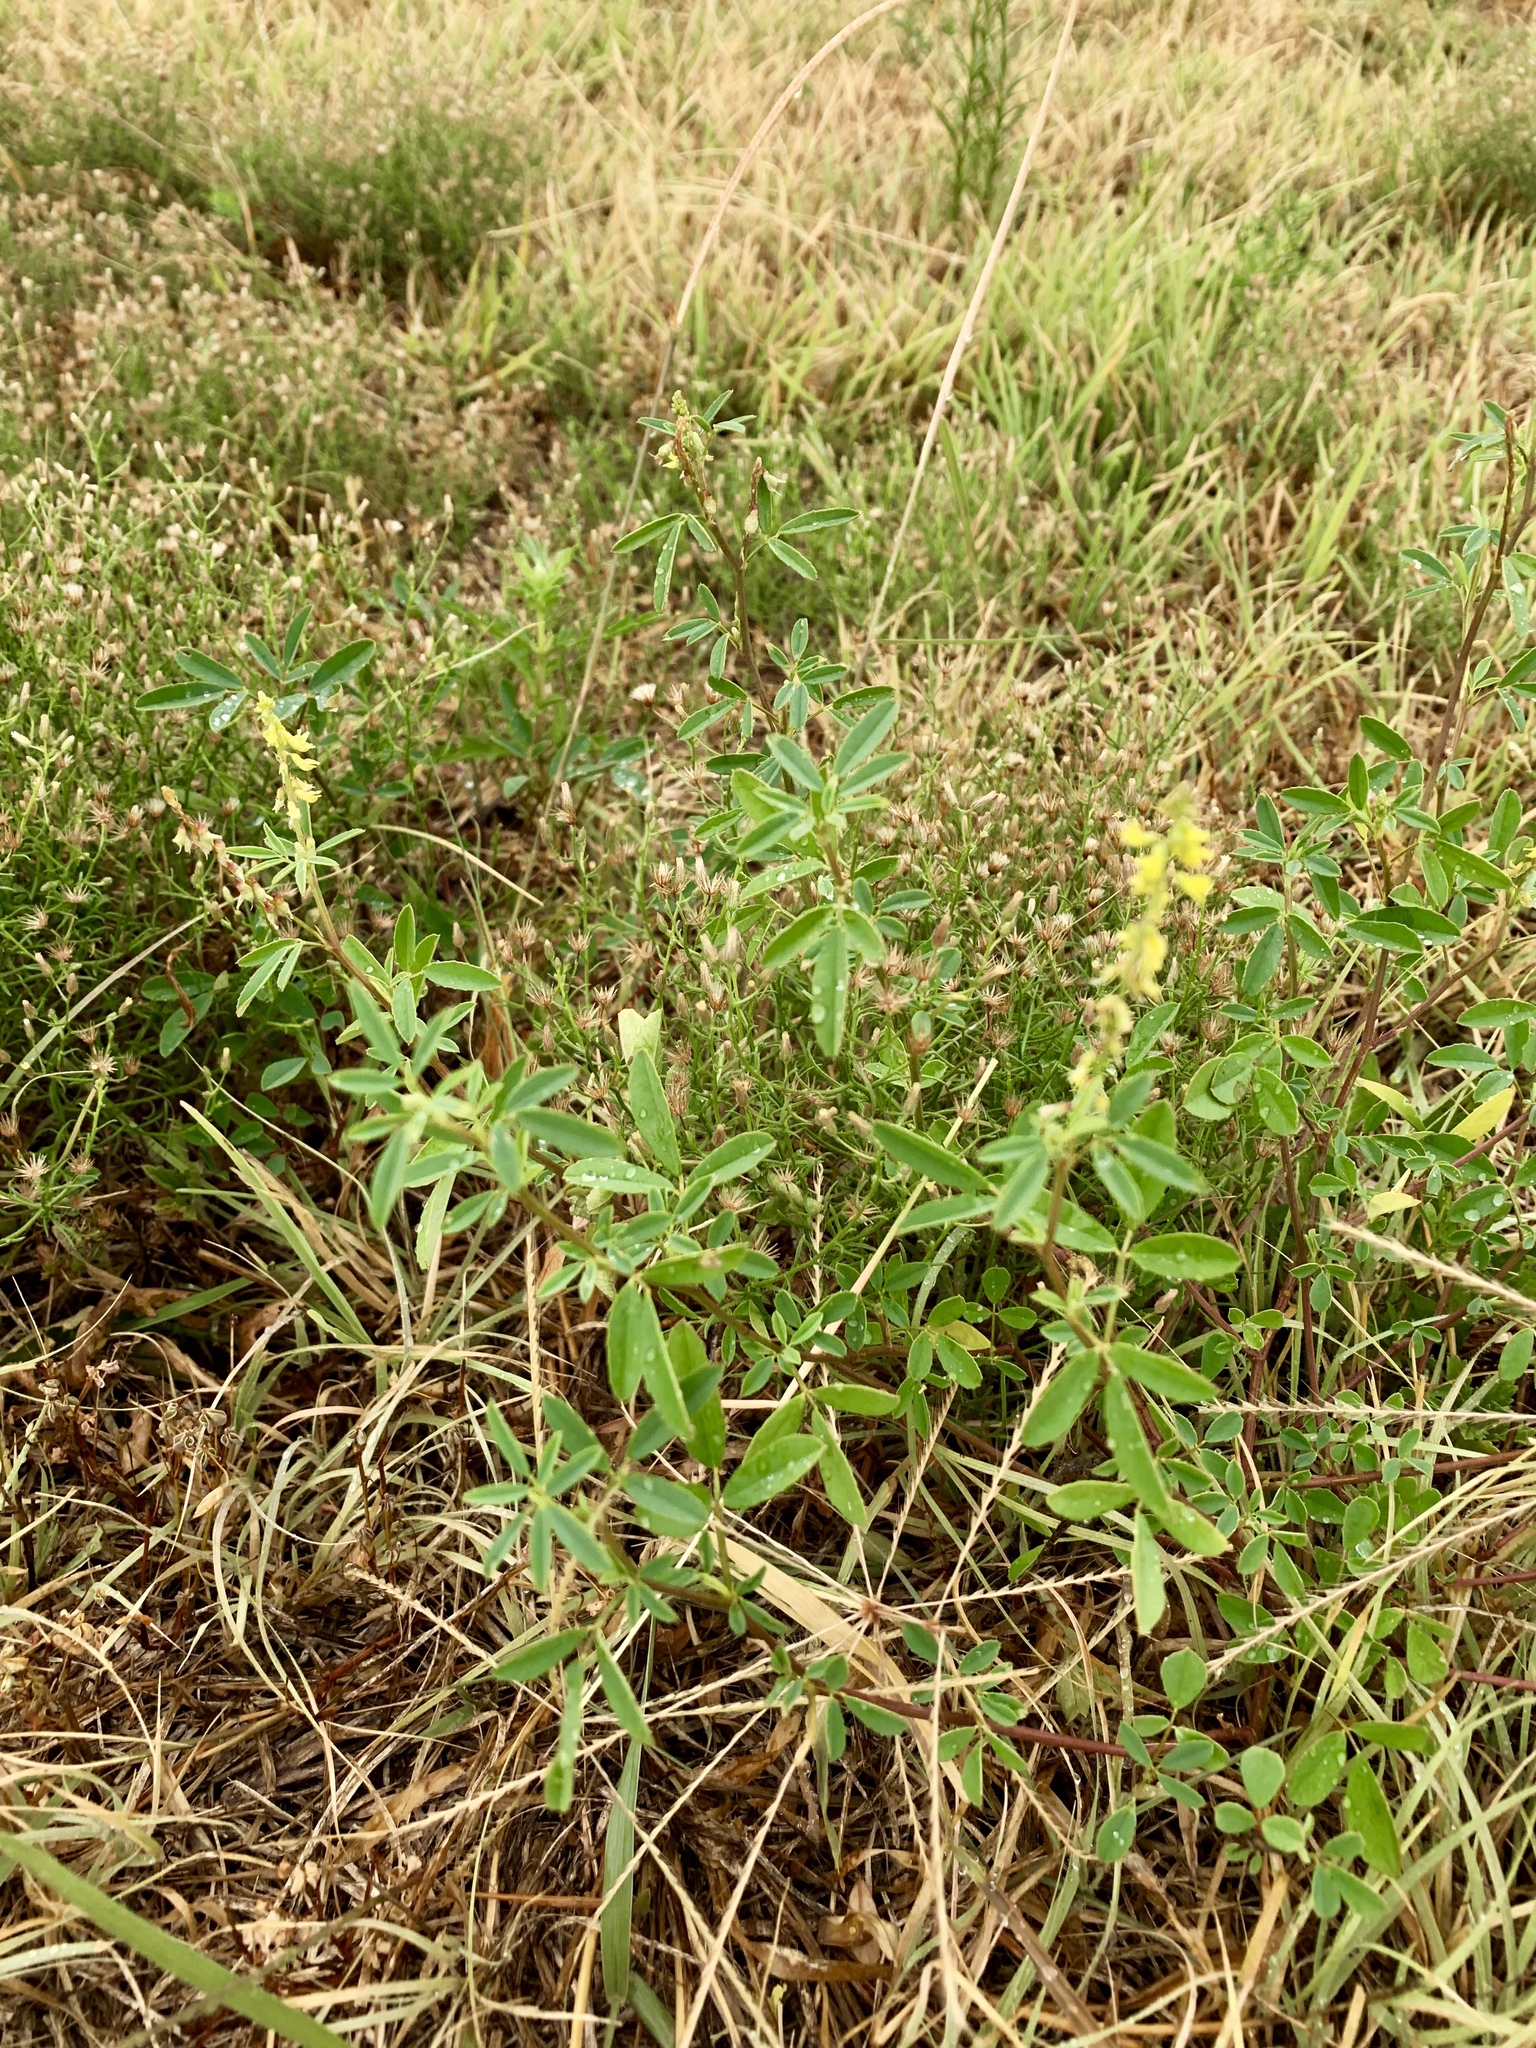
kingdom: Plantae
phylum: Tracheophyta
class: Magnoliopsida
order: Fabales
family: Fabaceae
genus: Melilotus
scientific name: Melilotus officinalis
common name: Sweetclover
